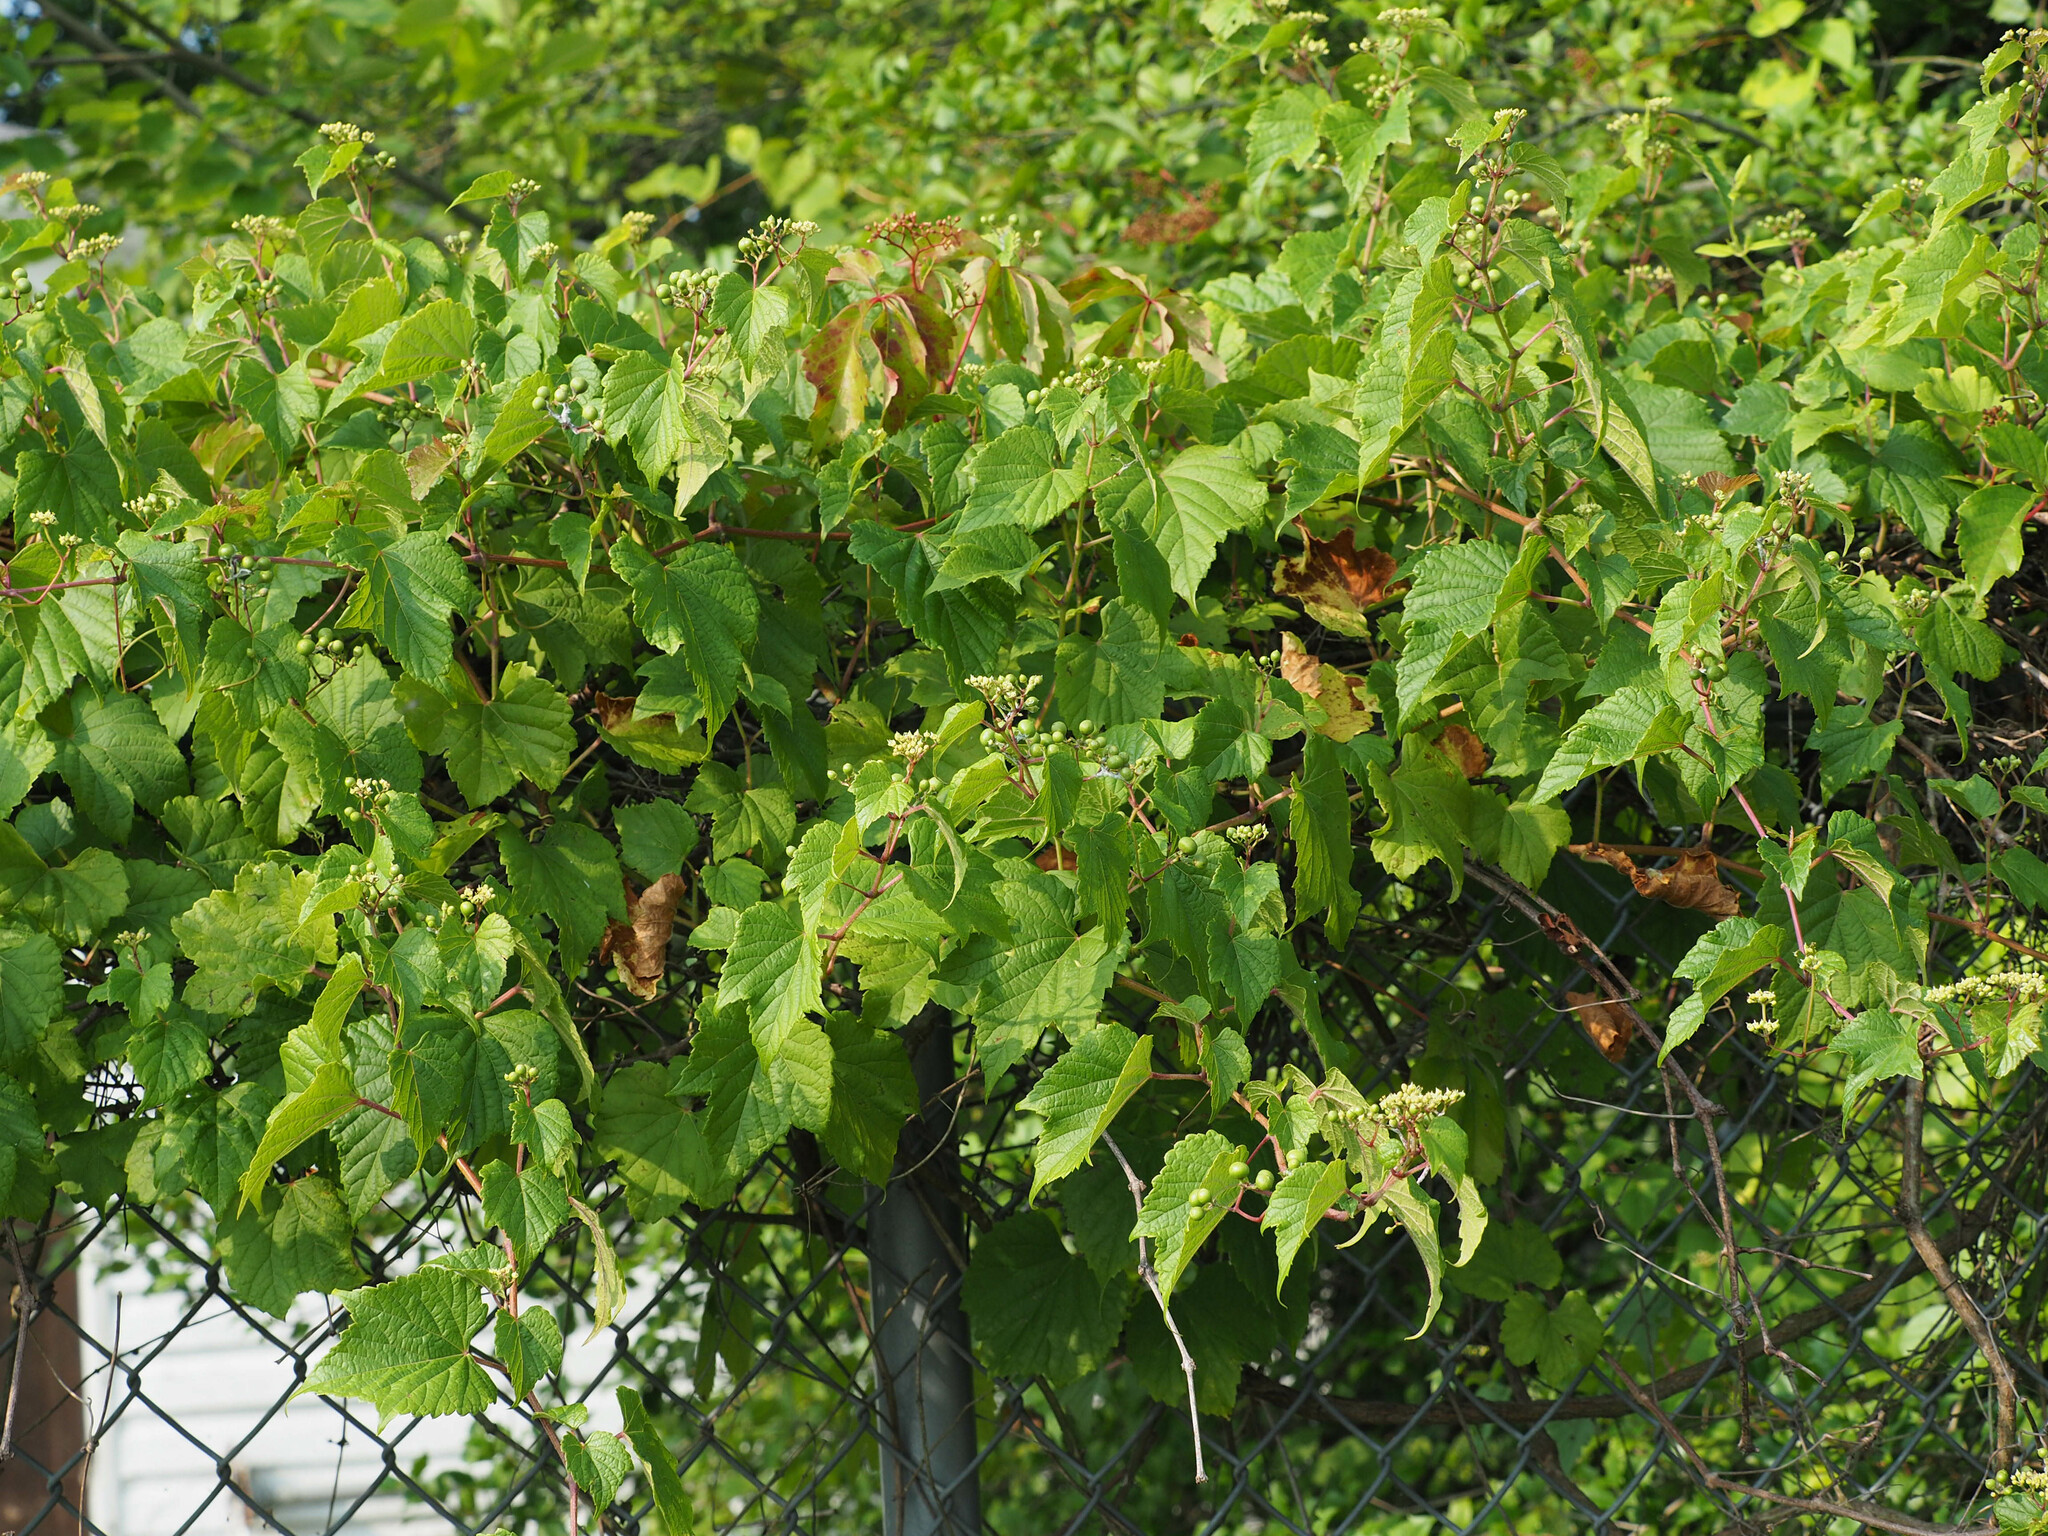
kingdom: Plantae
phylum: Tracheophyta
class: Magnoliopsida
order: Vitales
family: Vitaceae
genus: Ampelopsis
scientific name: Ampelopsis glandulosa
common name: Amur peppervine
